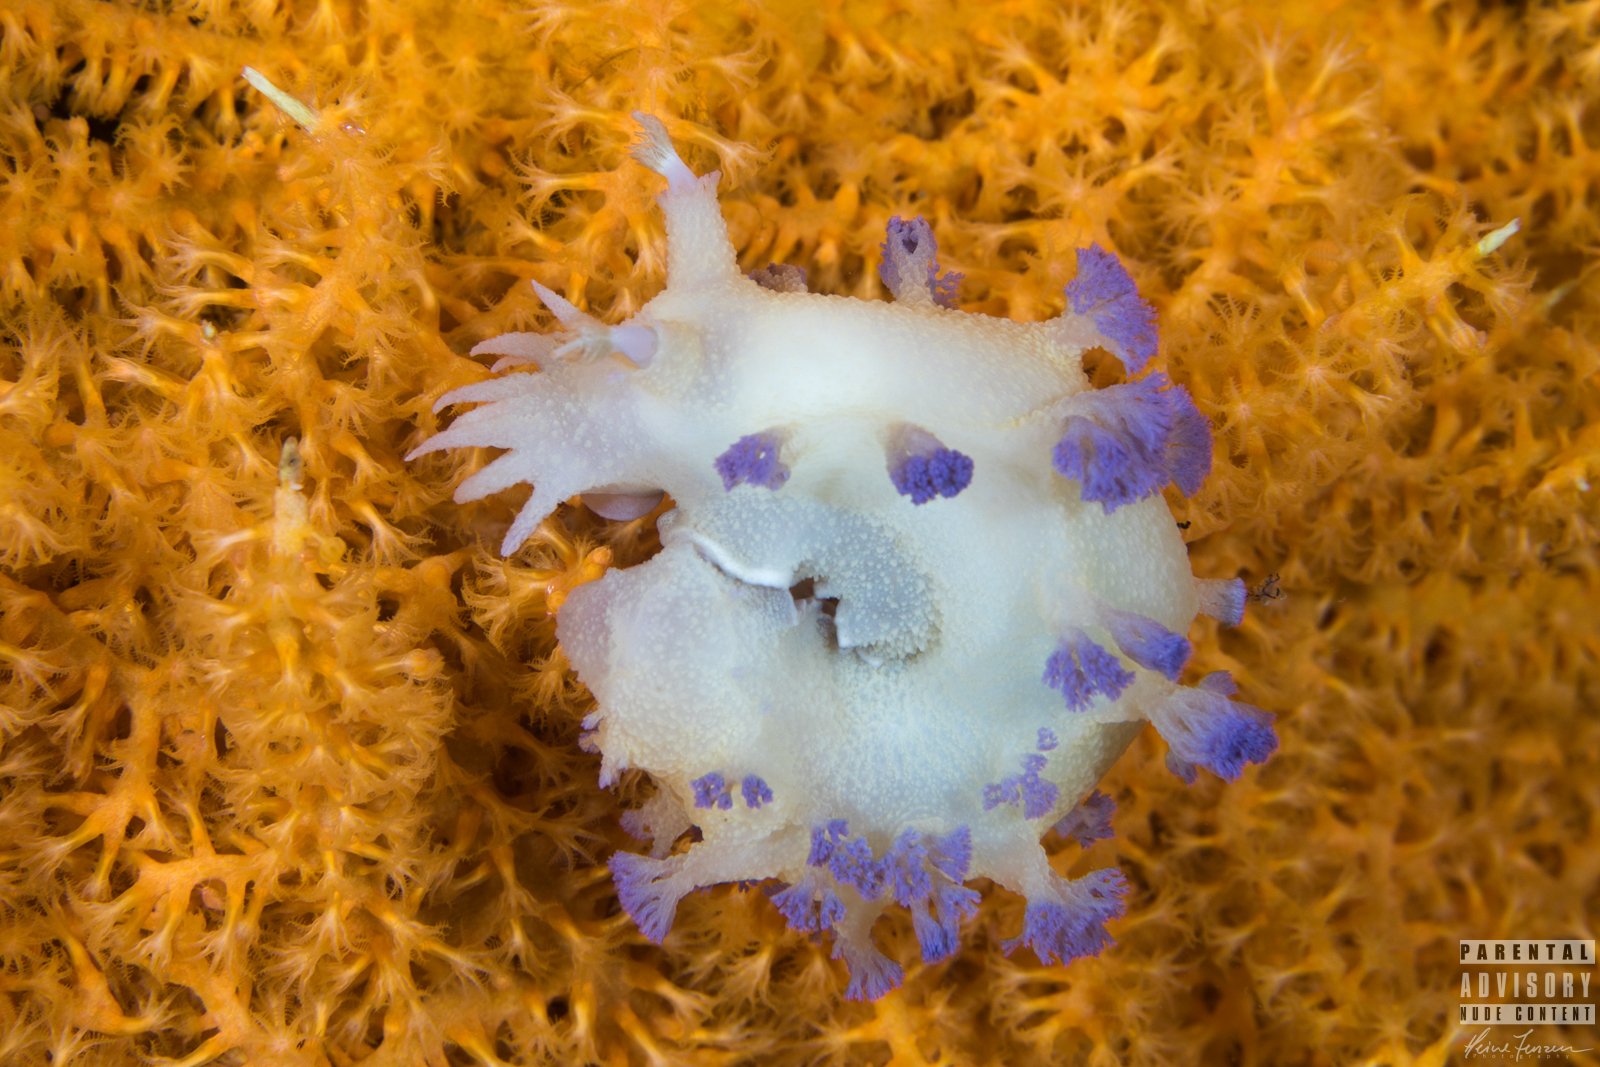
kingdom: Animalia
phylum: Mollusca
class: Gastropoda
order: Nudibranchia
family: Tritoniidae
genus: Tritonia
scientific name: Tritonia griegi
